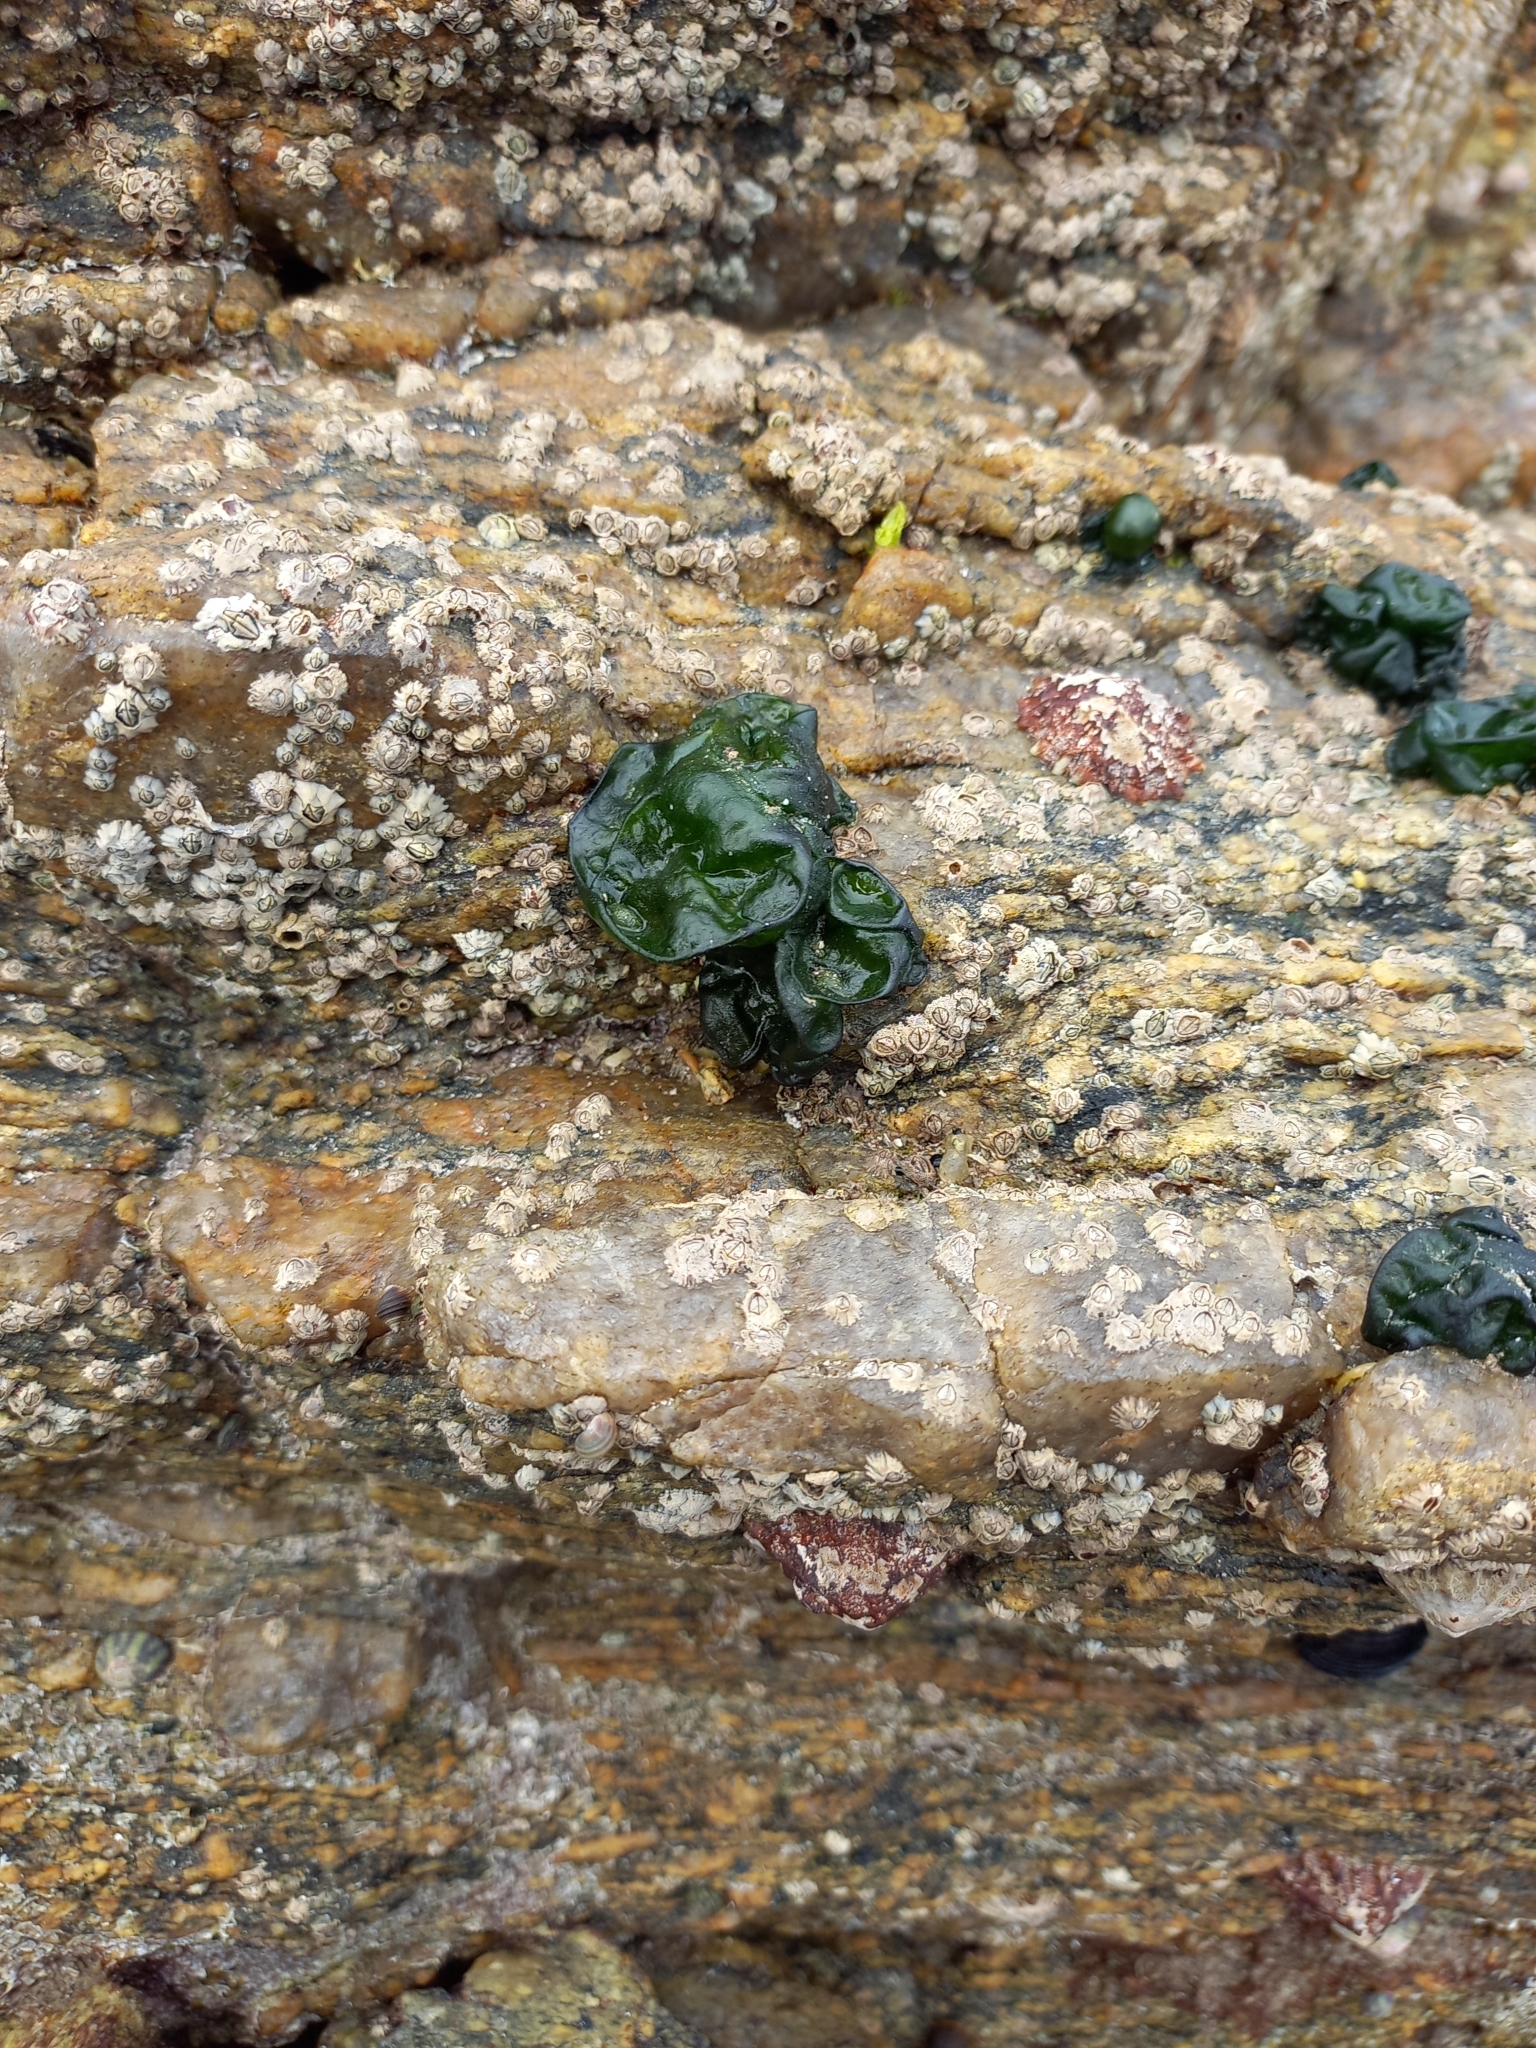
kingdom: Bacteria
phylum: Cyanobacteria
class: Cyanobacteriia
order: Cyanobacteriales
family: Nostocaceae
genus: Rivularia
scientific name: Rivularia bullata
